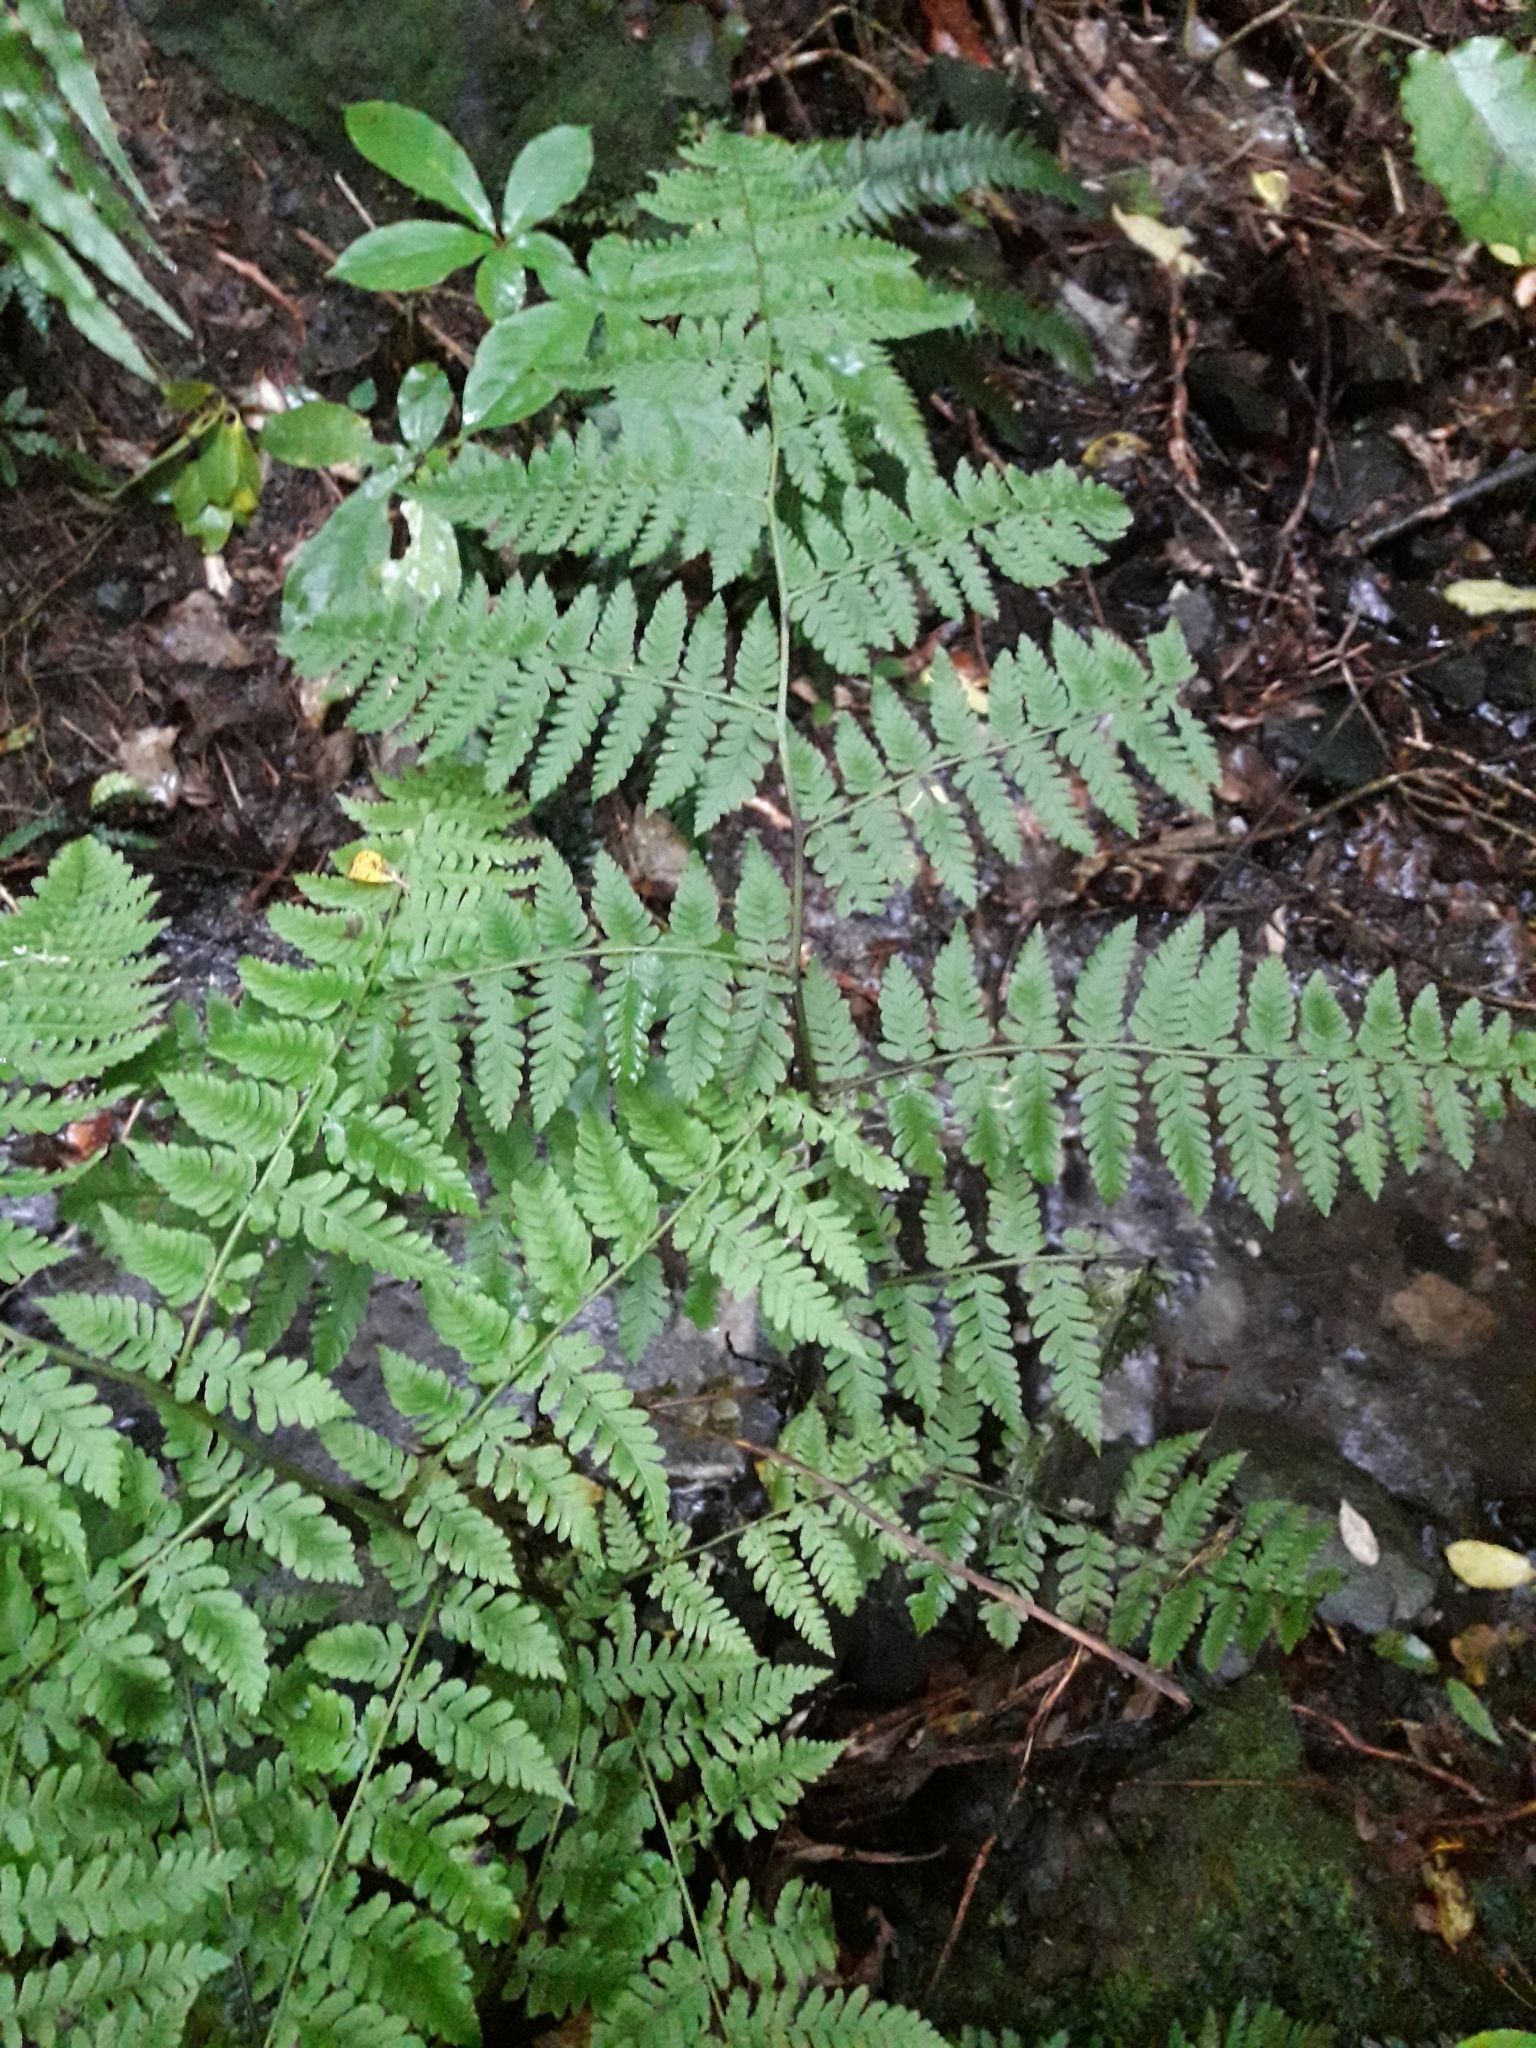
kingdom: Plantae
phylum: Tracheophyta
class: Polypodiopsida
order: Polypodiales
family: Athyriaceae
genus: Diplazium
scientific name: Diplazium australe
